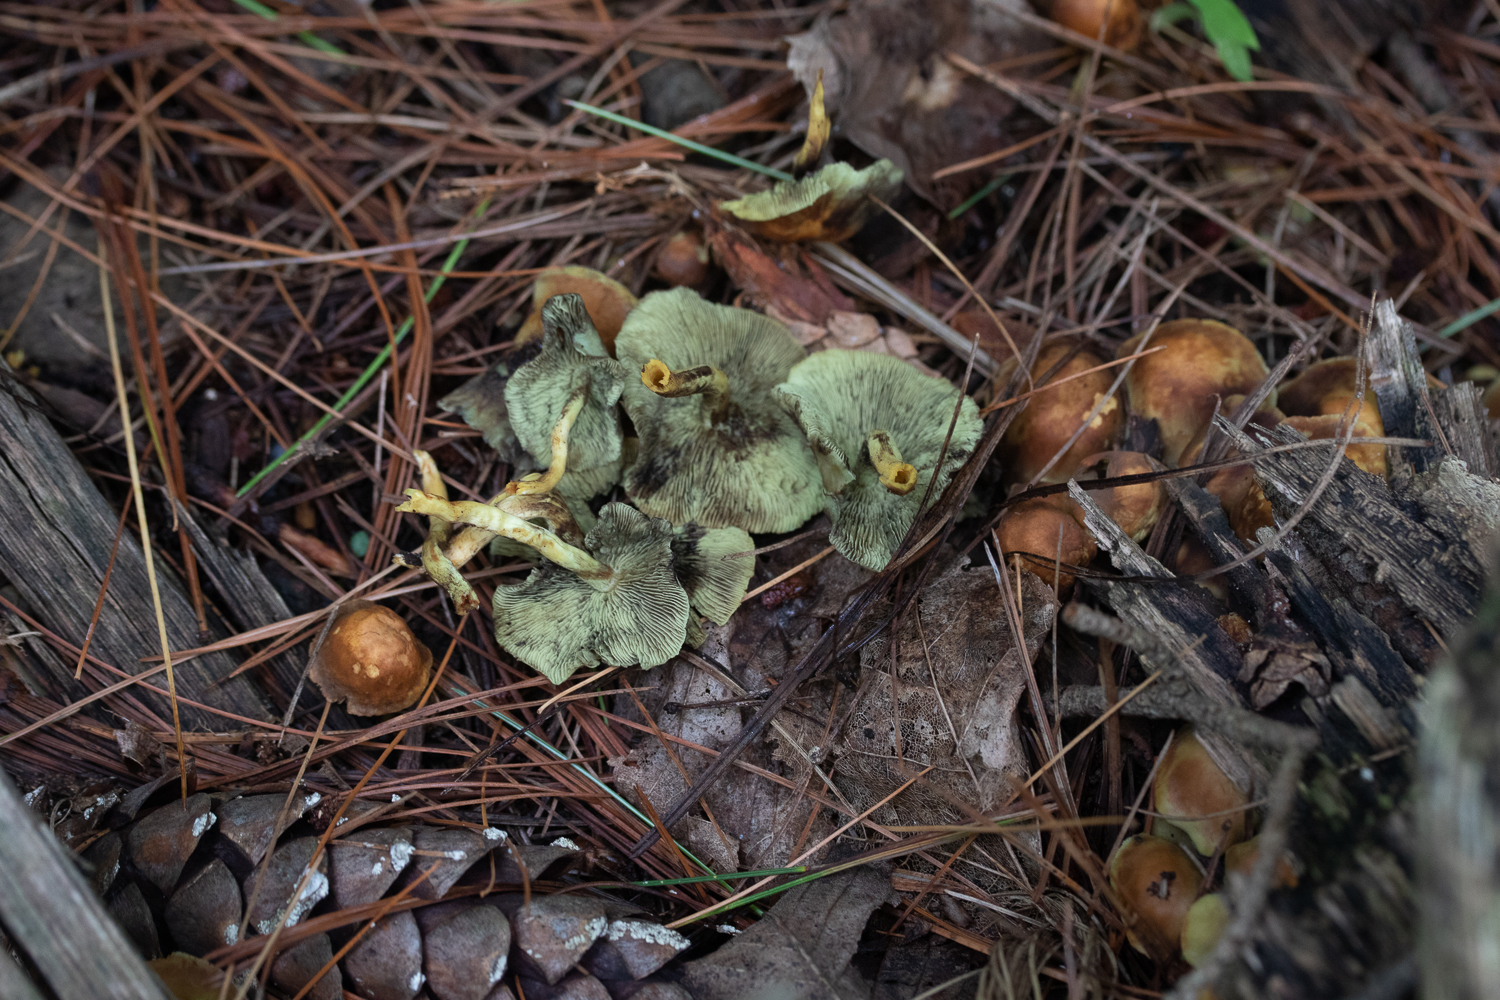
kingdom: Fungi
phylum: Basidiomycota
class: Agaricomycetes
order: Agaricales
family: Strophariaceae
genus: Hypholoma
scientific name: Hypholoma fasciculare
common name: Sulphur tuft
